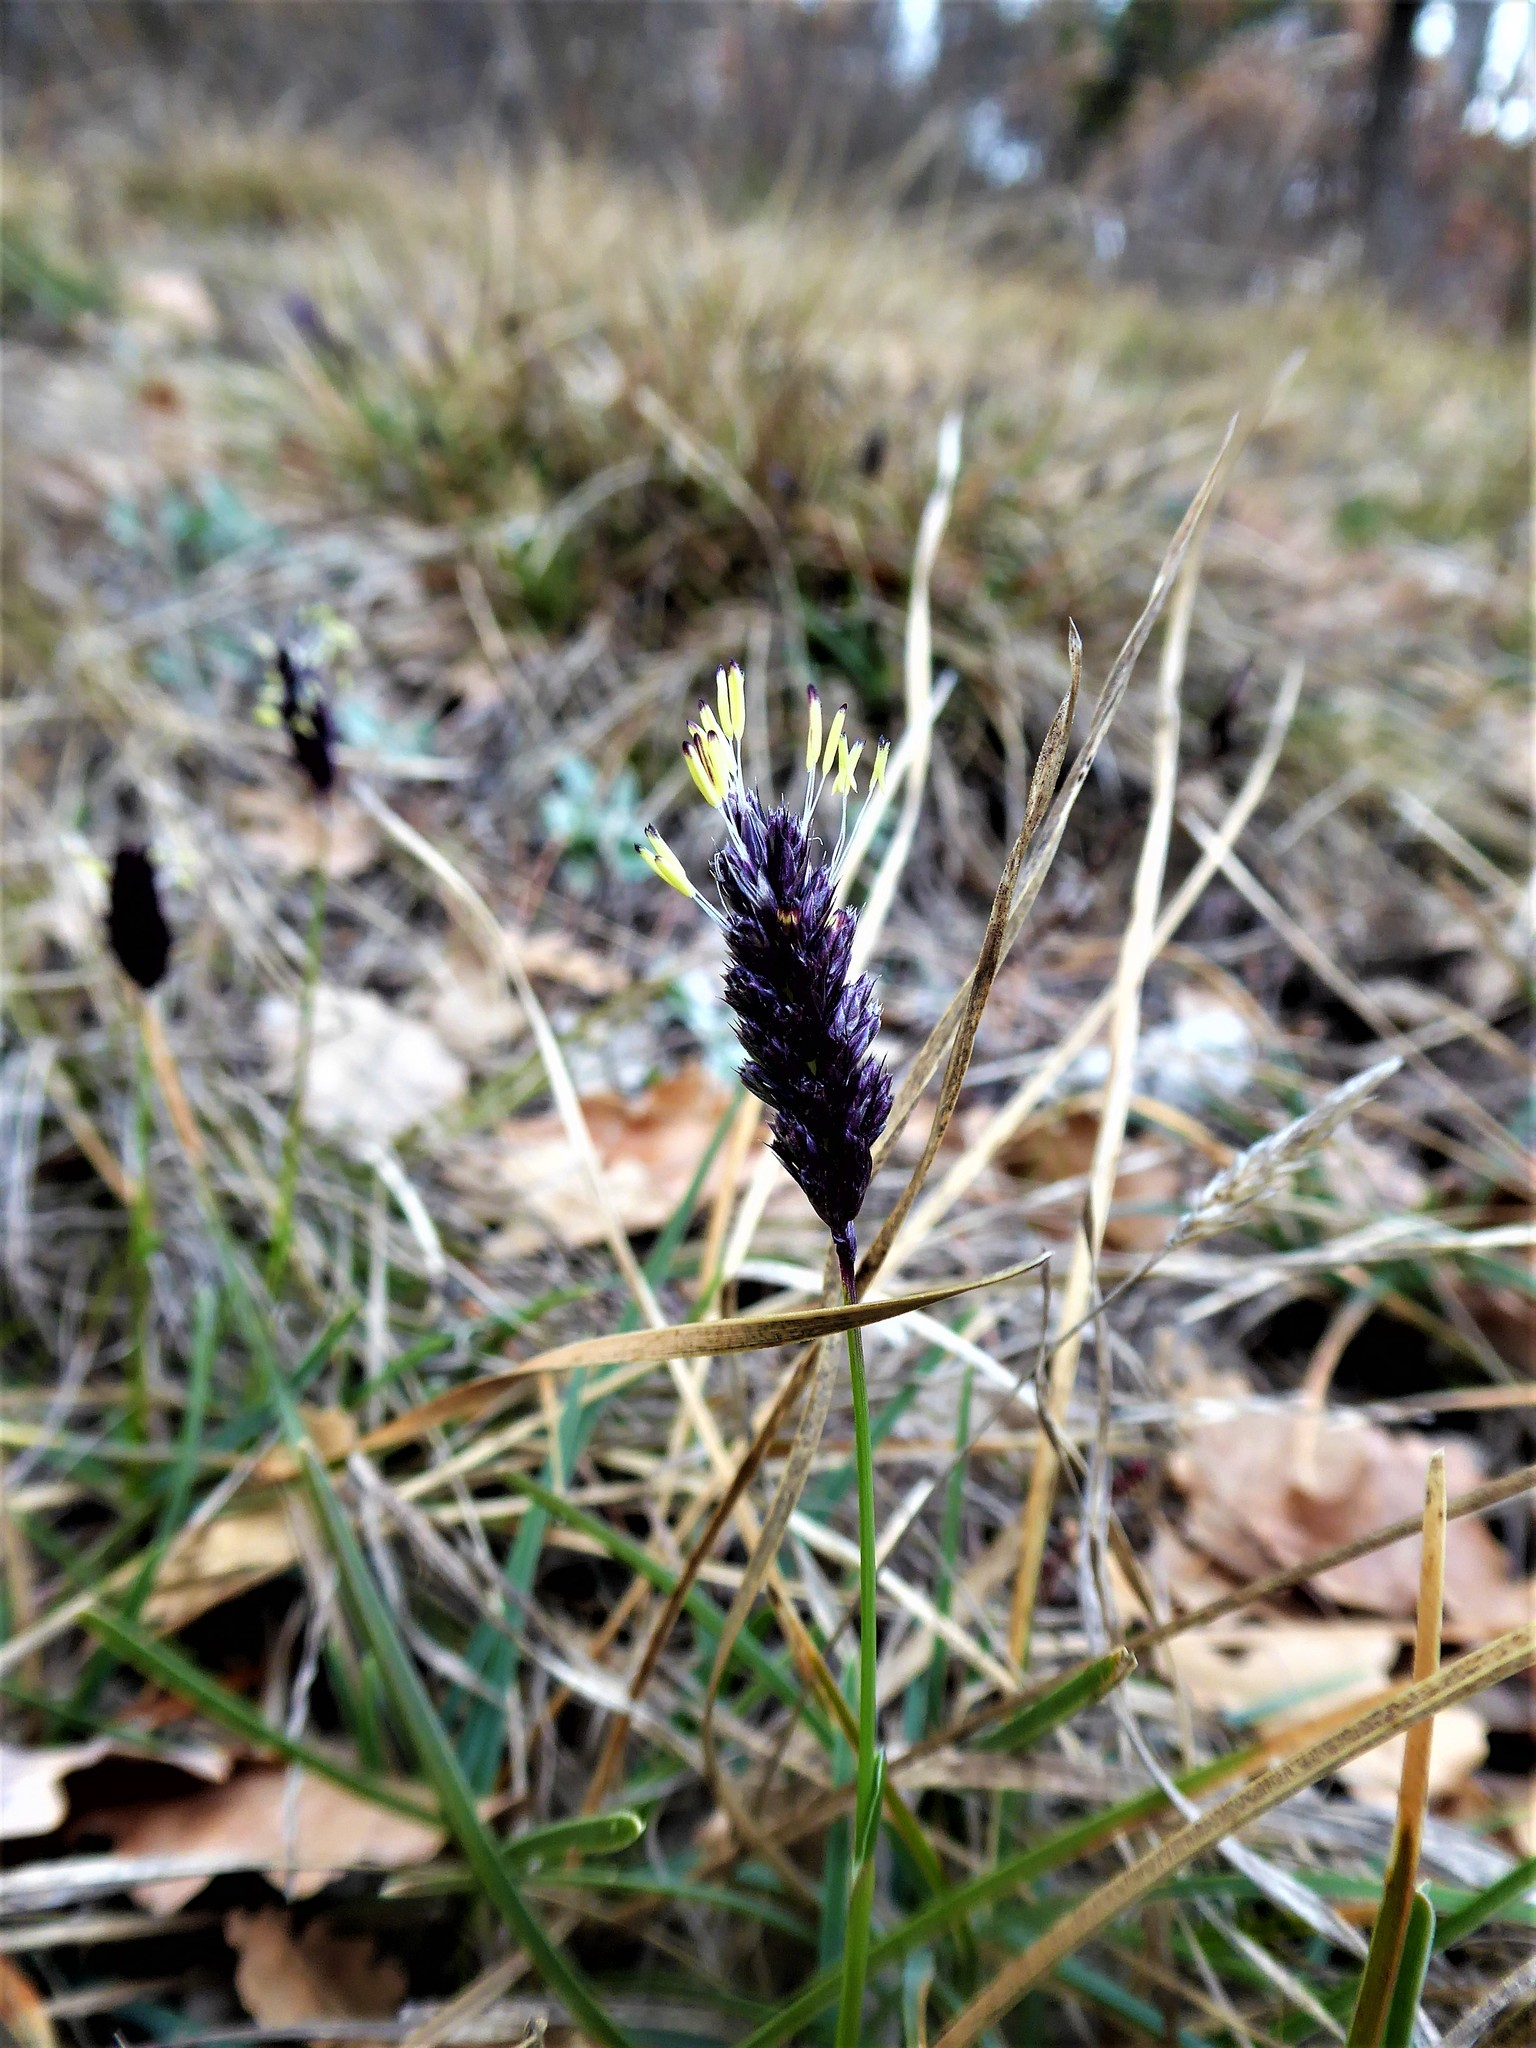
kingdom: Plantae
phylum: Tracheophyta
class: Liliopsida
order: Poales
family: Poaceae
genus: Sesleria
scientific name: Sesleria caerulea
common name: Blue moor-grass
